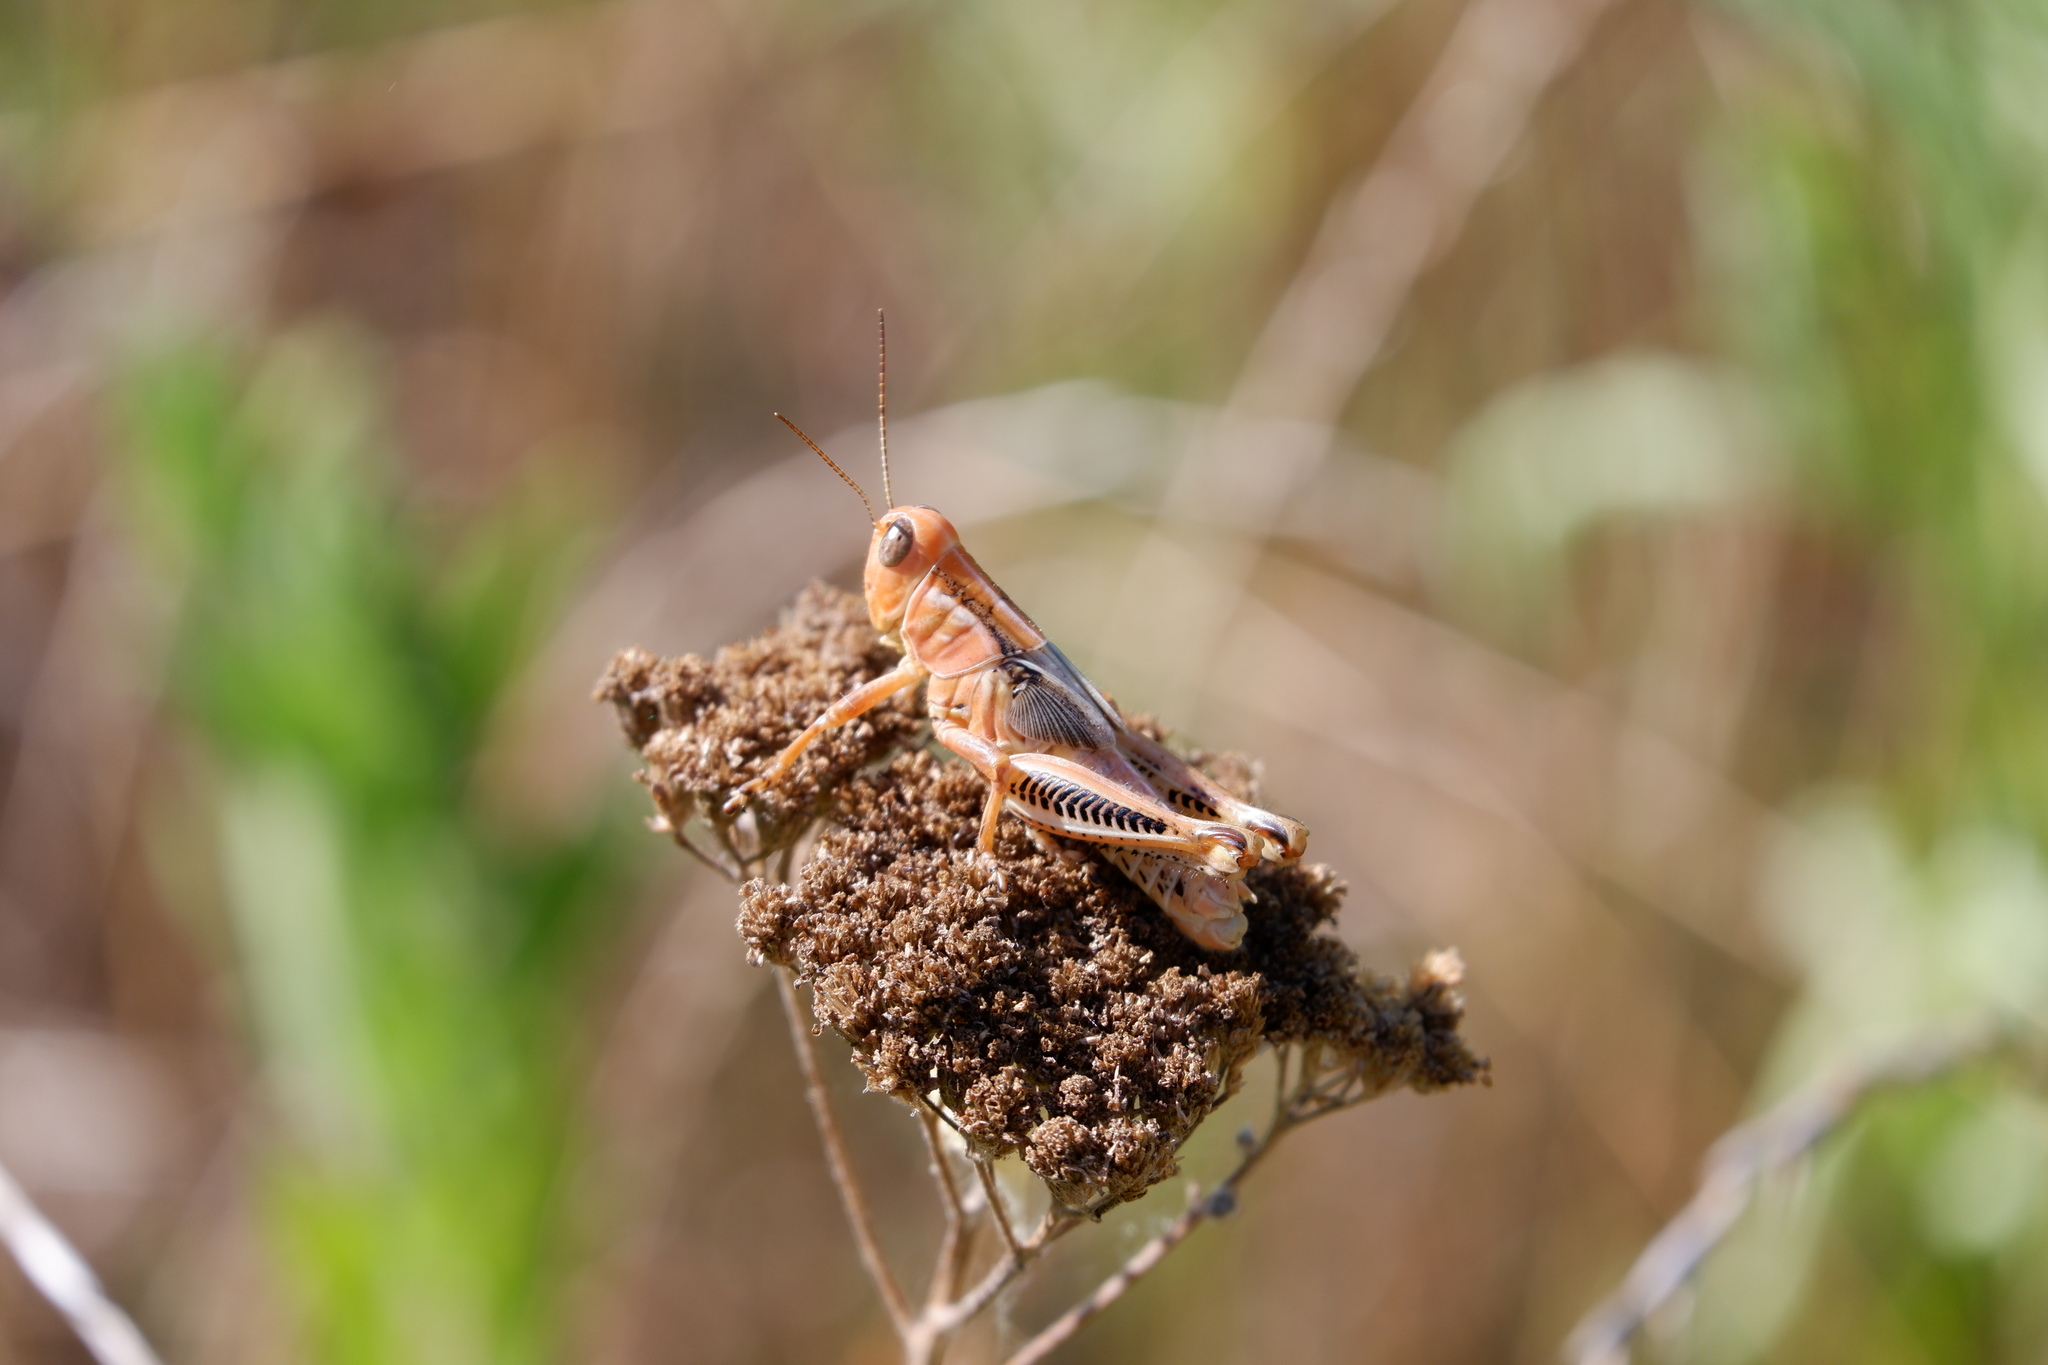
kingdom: Animalia
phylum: Arthropoda
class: Insecta
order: Orthoptera
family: Acrididae
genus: Melanoplus
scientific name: Melanoplus differentialis
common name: Differential grasshopper
